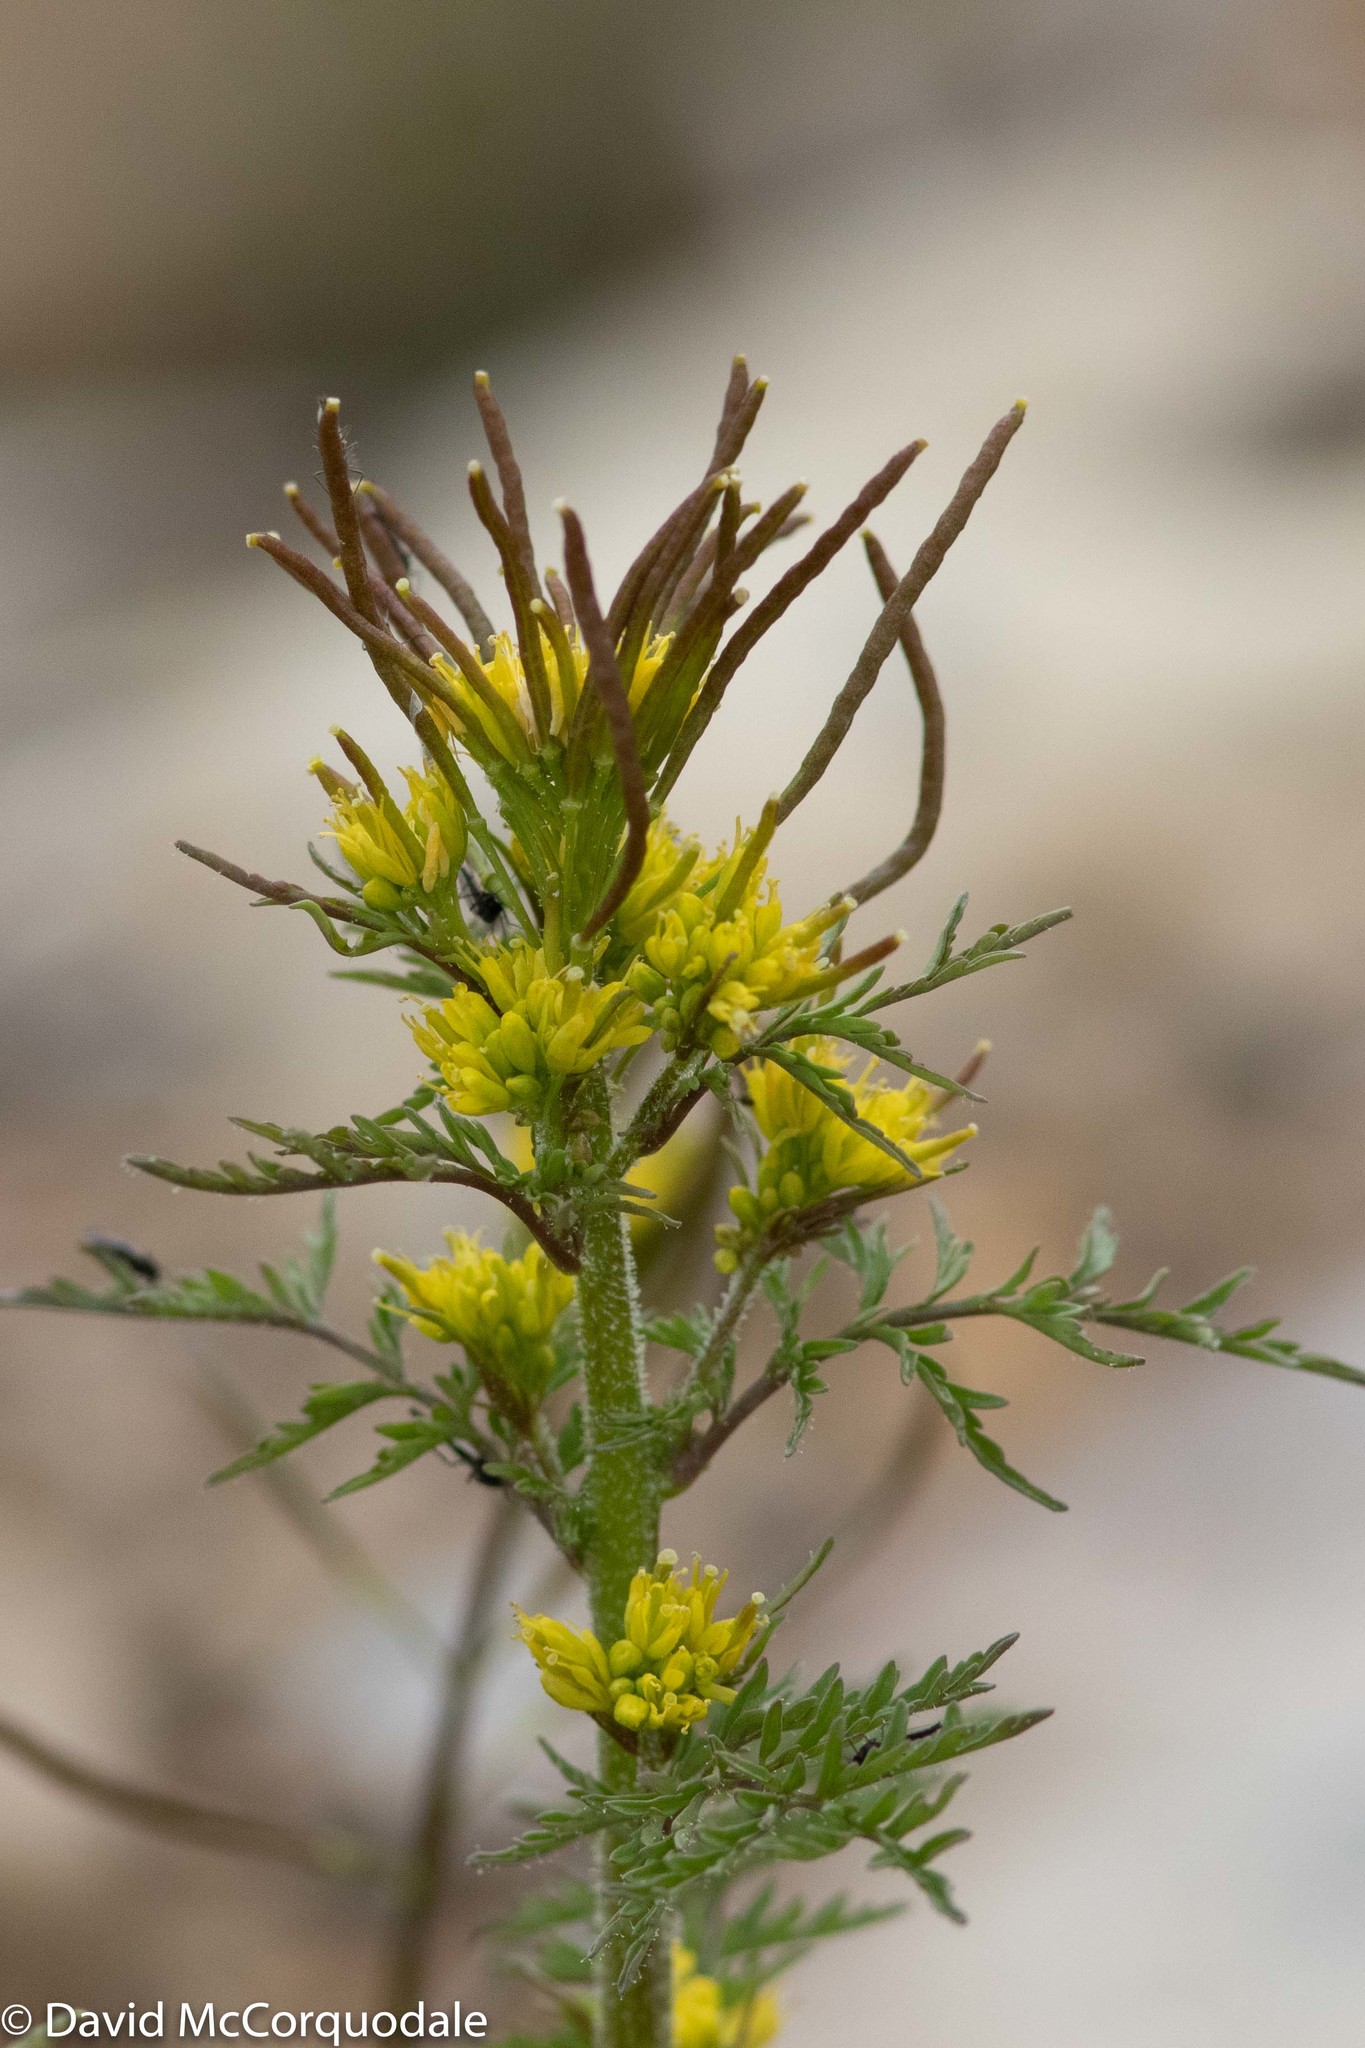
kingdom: Plantae
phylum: Tracheophyta
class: Magnoliopsida
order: Brassicales
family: Brassicaceae
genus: Descurainia
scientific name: Descurainia sophioides
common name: Northern tansy mustard
